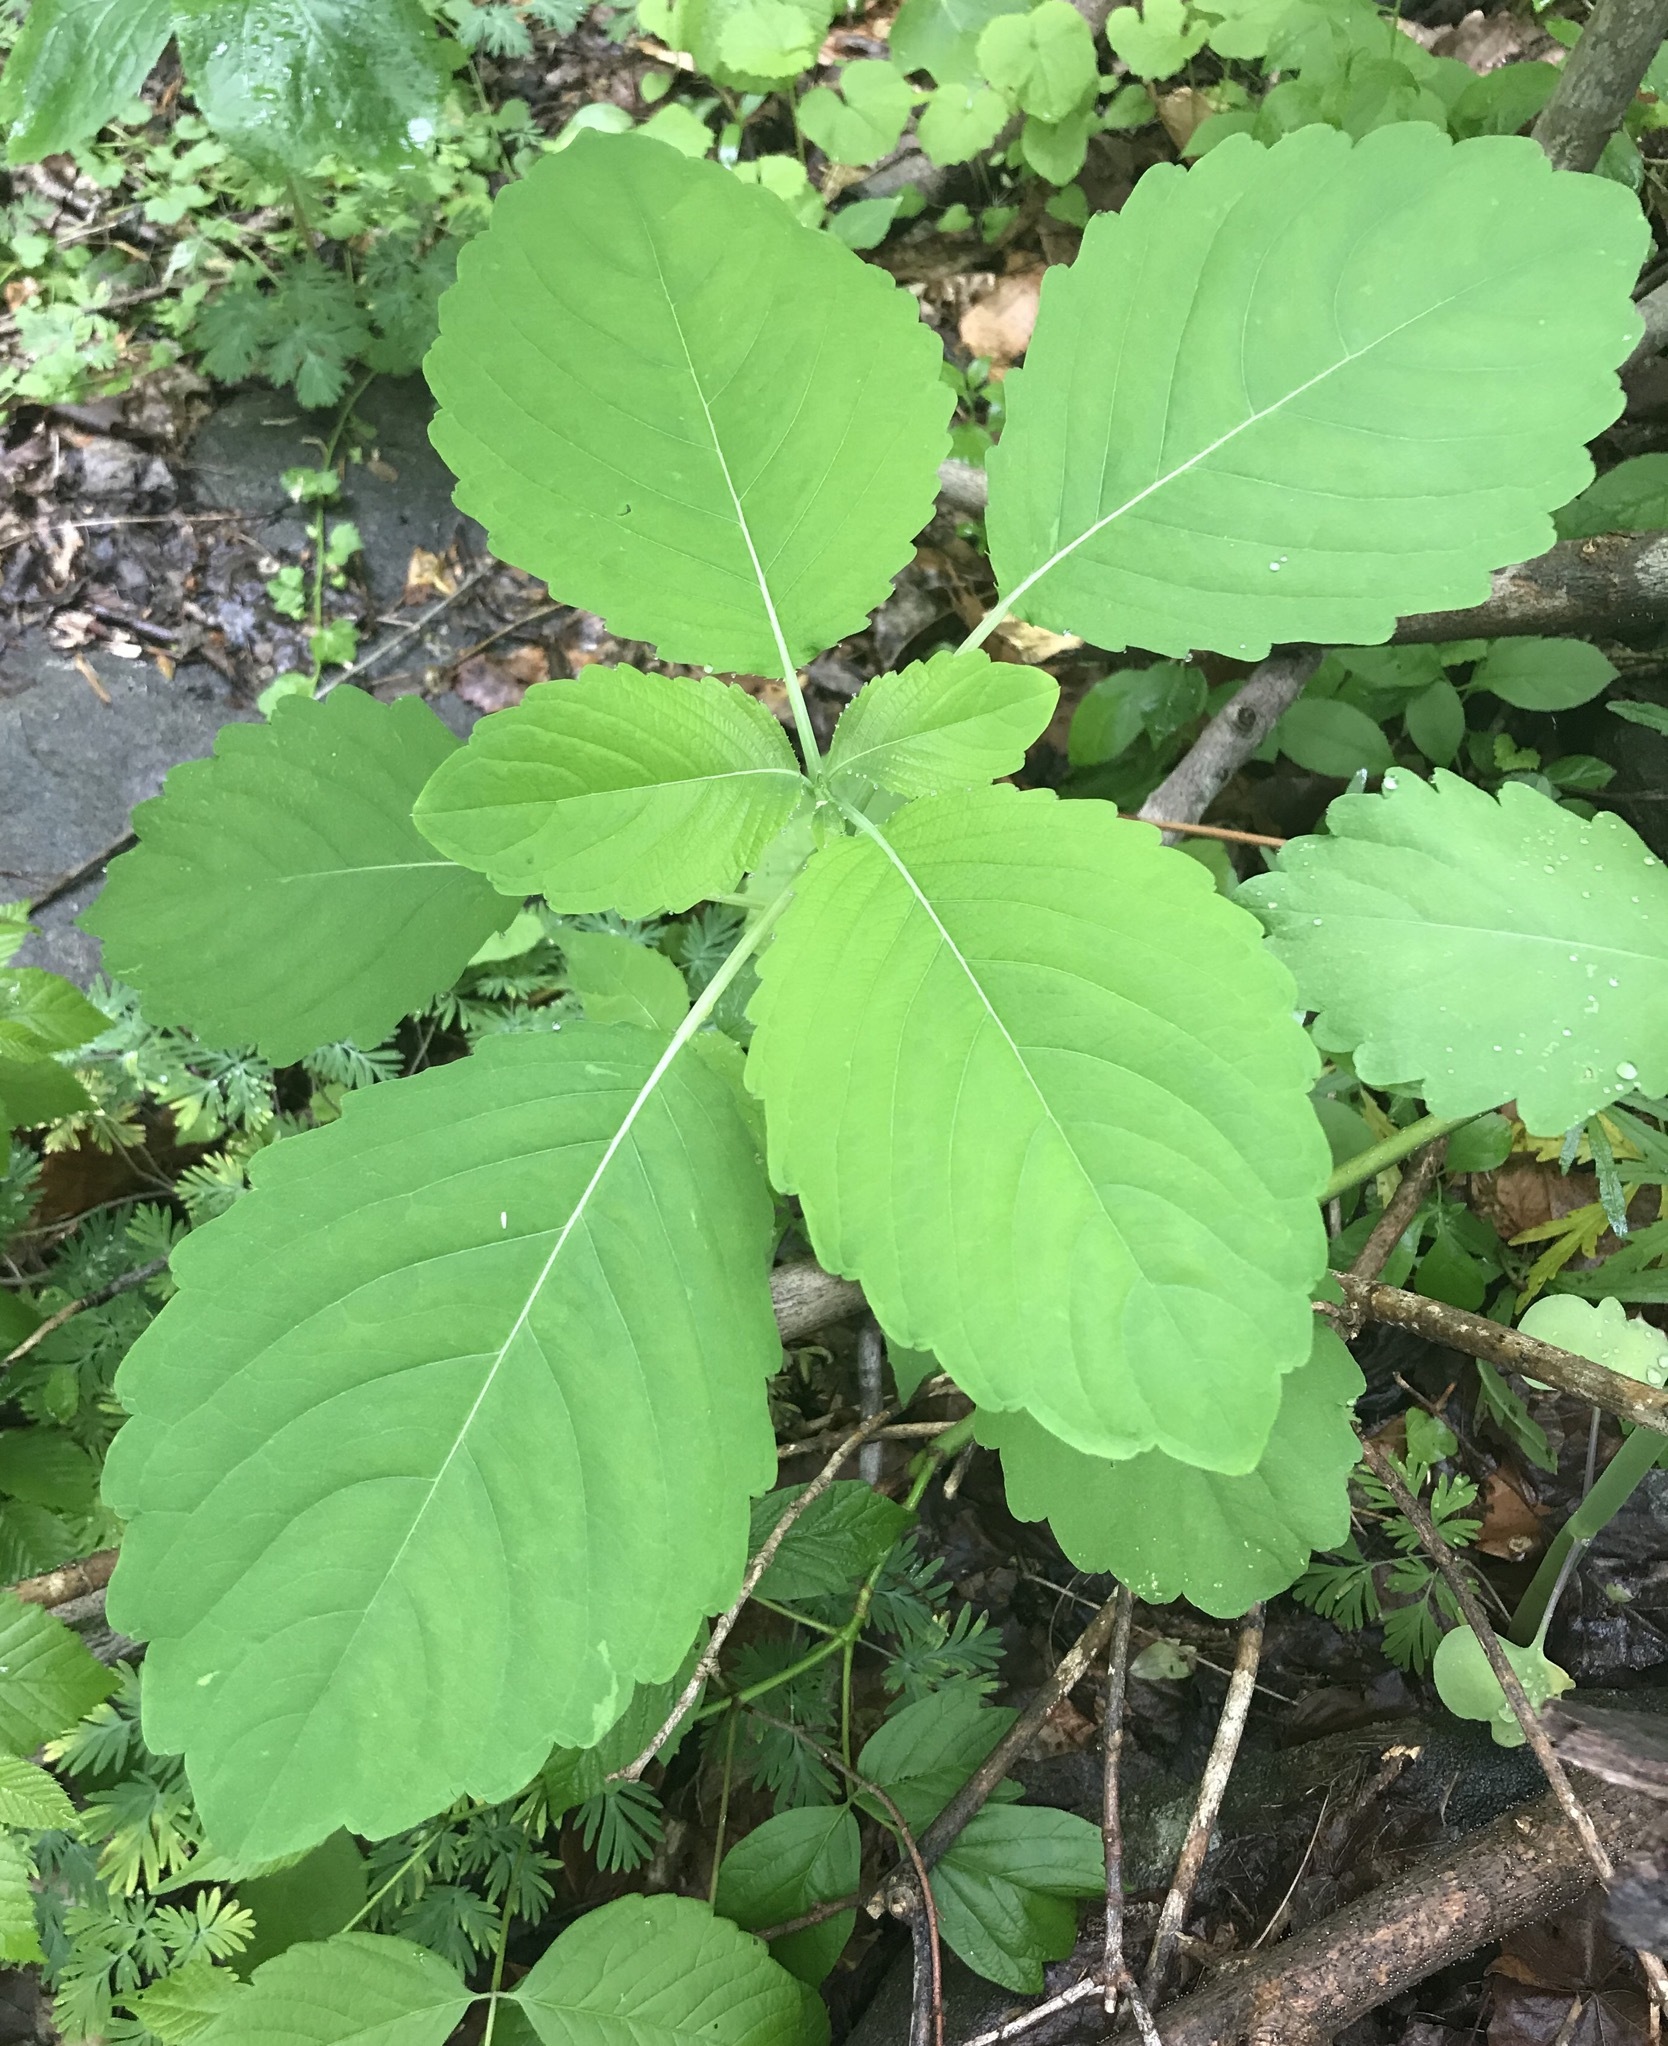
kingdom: Plantae
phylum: Tracheophyta
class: Magnoliopsida
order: Ericales
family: Balsaminaceae
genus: Impatiens
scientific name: Impatiens capensis
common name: Orange balsam
